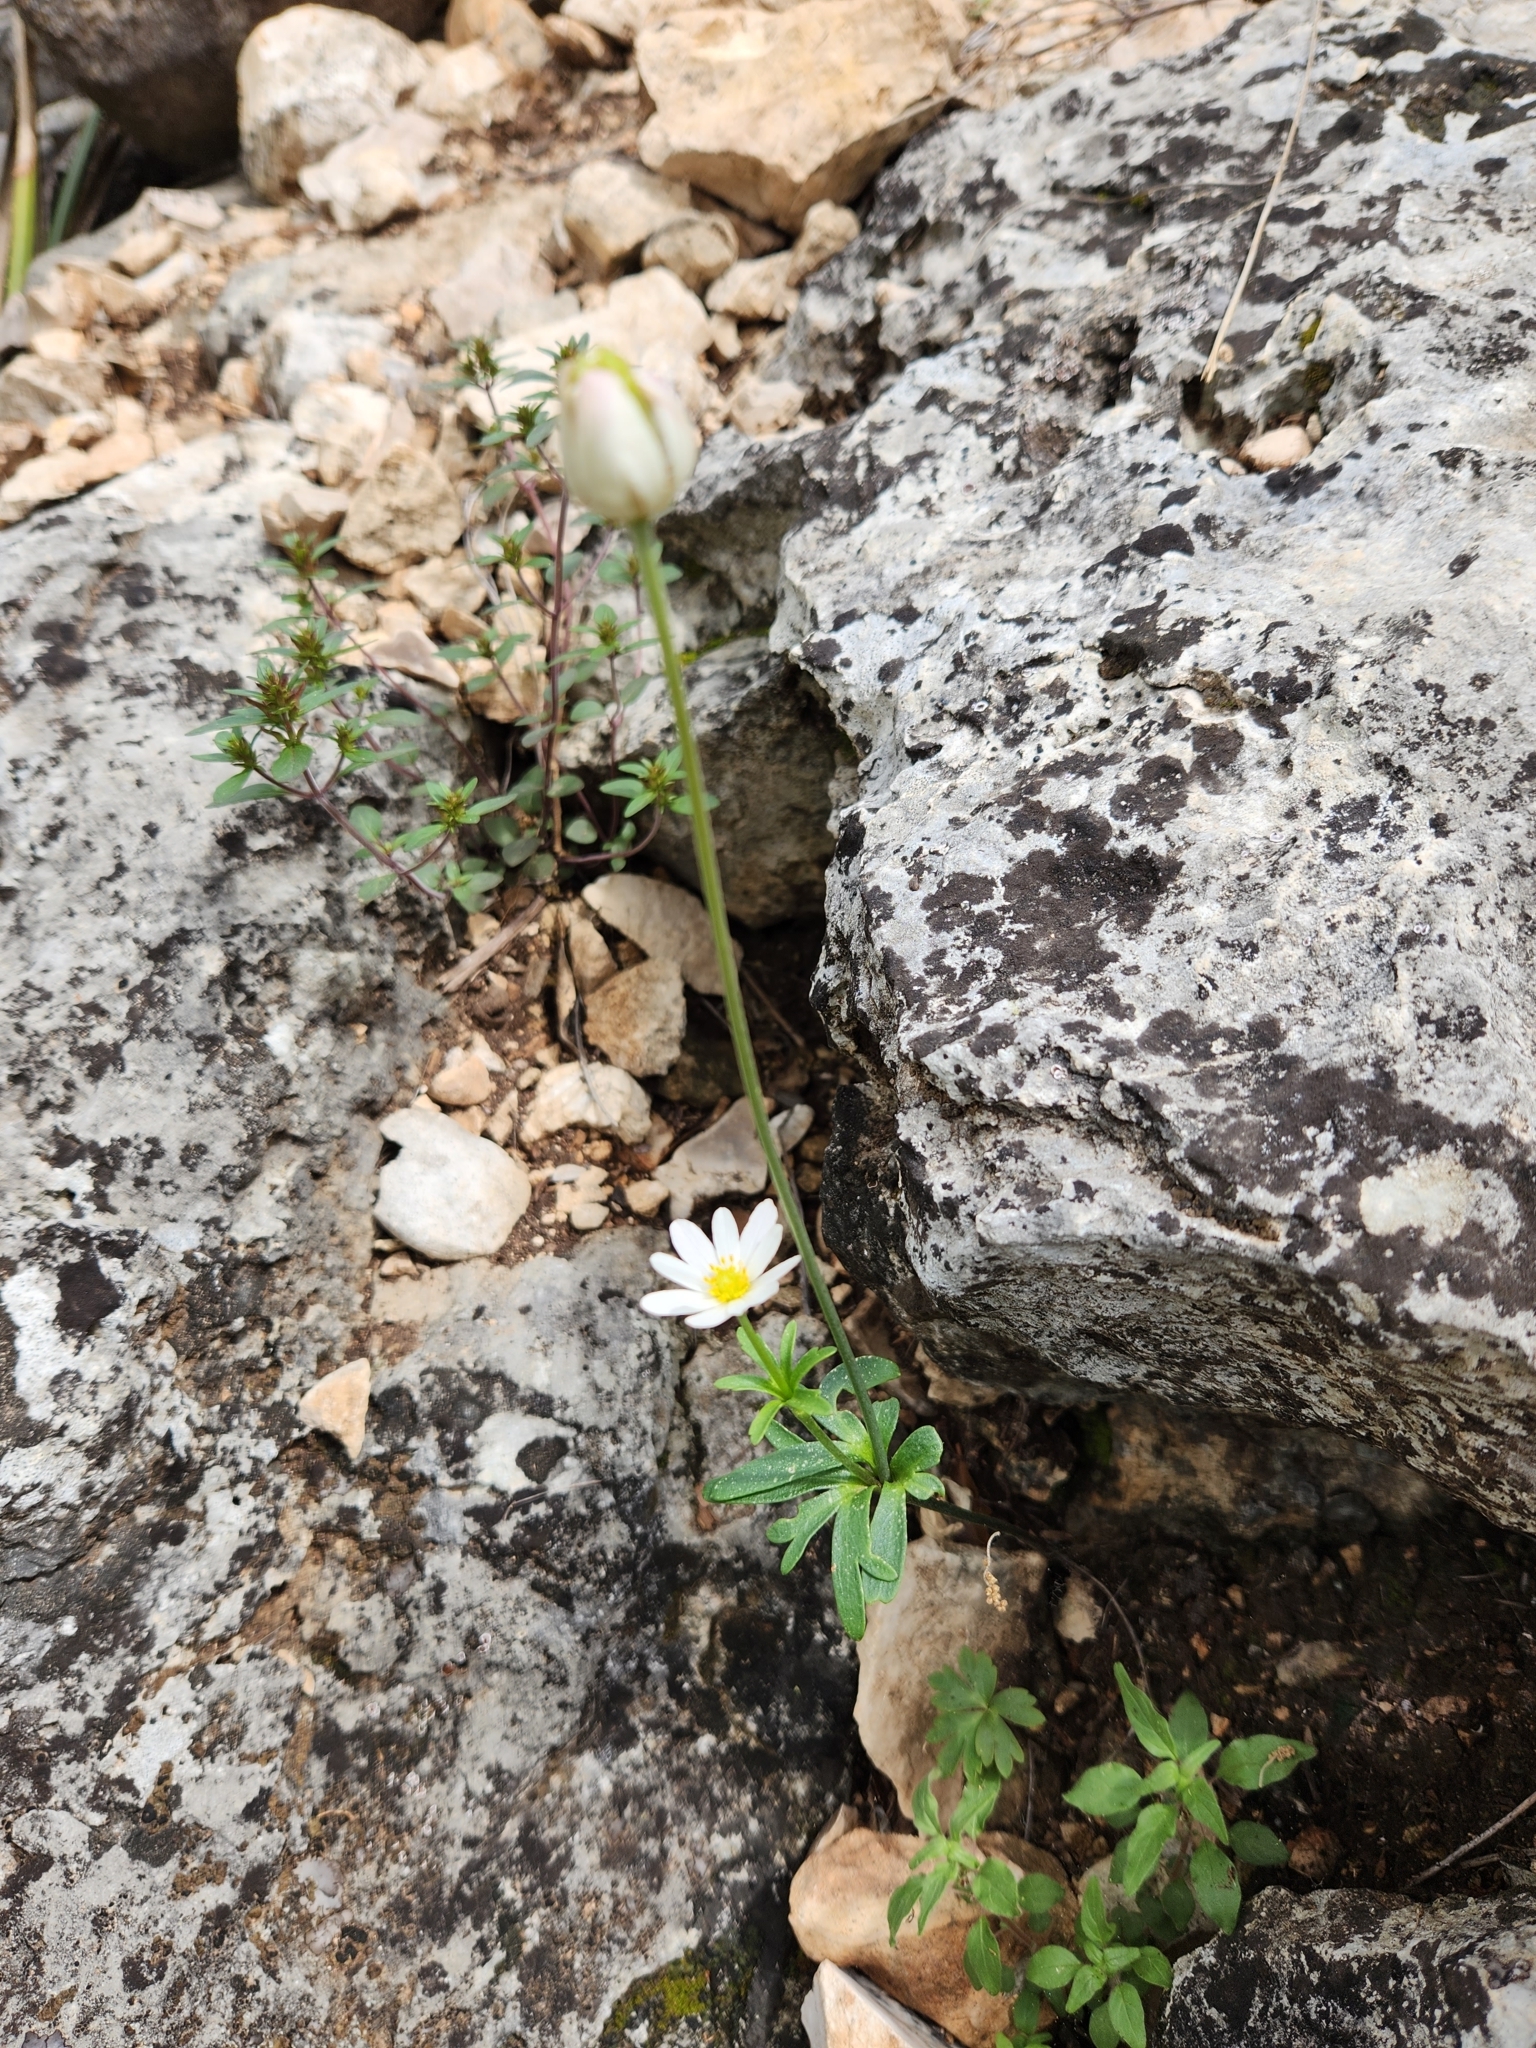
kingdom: Plantae
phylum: Tracheophyta
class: Magnoliopsida
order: Ranunculales
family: Ranunculaceae
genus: Anemone
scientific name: Anemone edwardsiana
